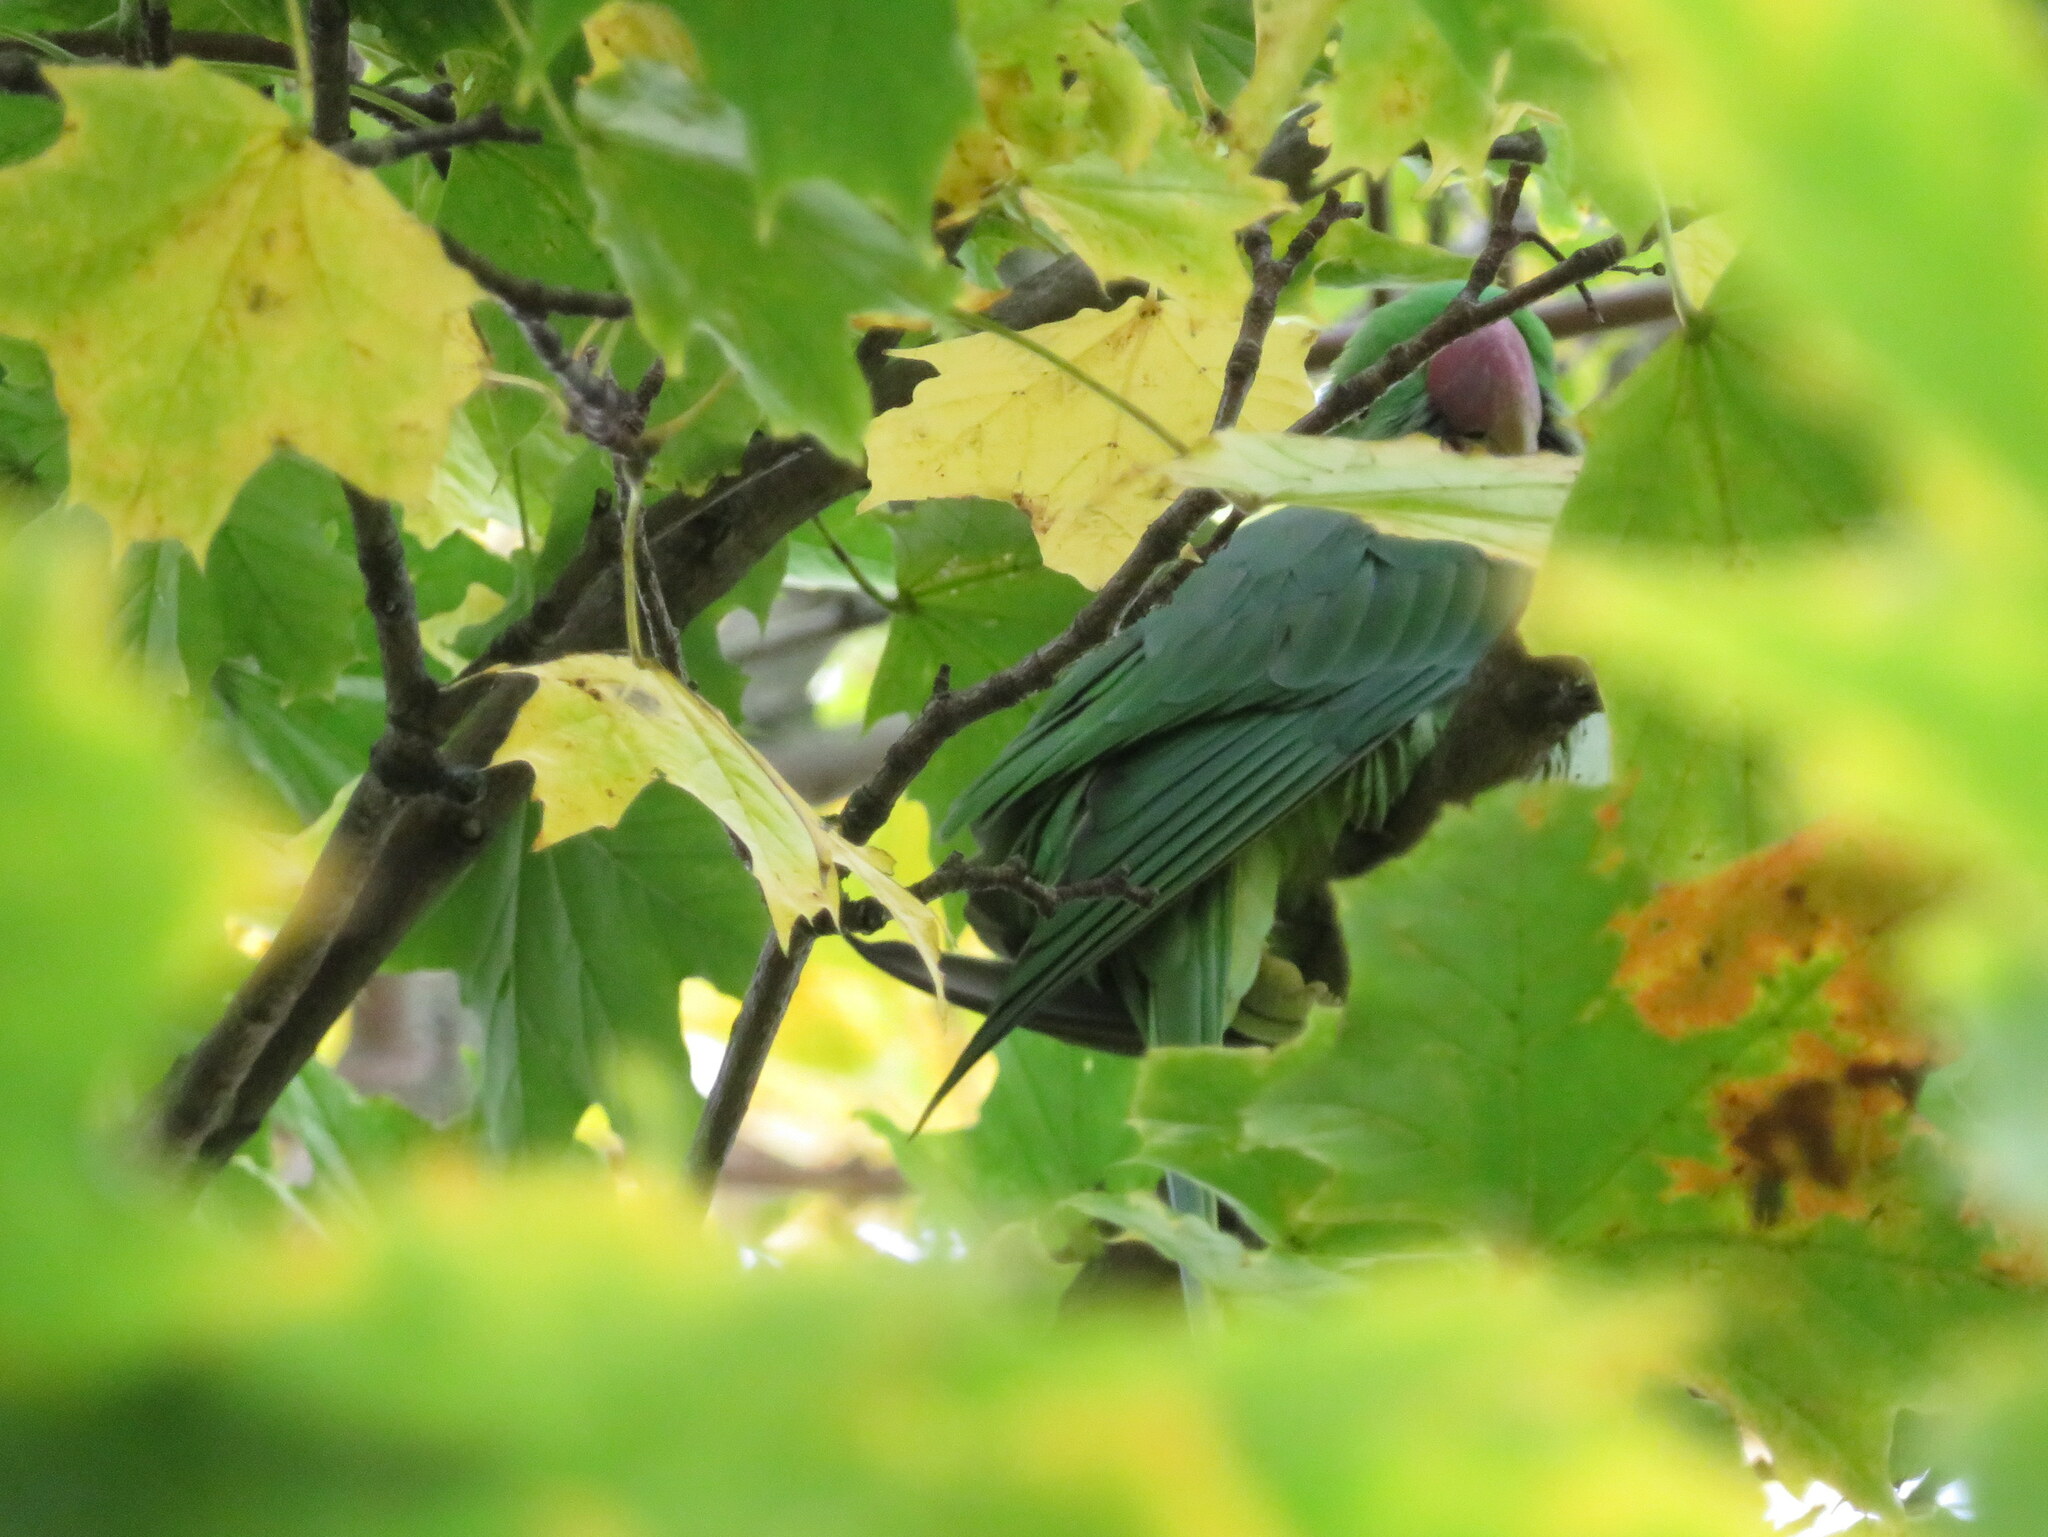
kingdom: Animalia
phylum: Chordata
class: Aves
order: Psittaciformes
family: Psittacidae
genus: Psittacula
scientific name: Psittacula krameri
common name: Rose-ringed parakeet
